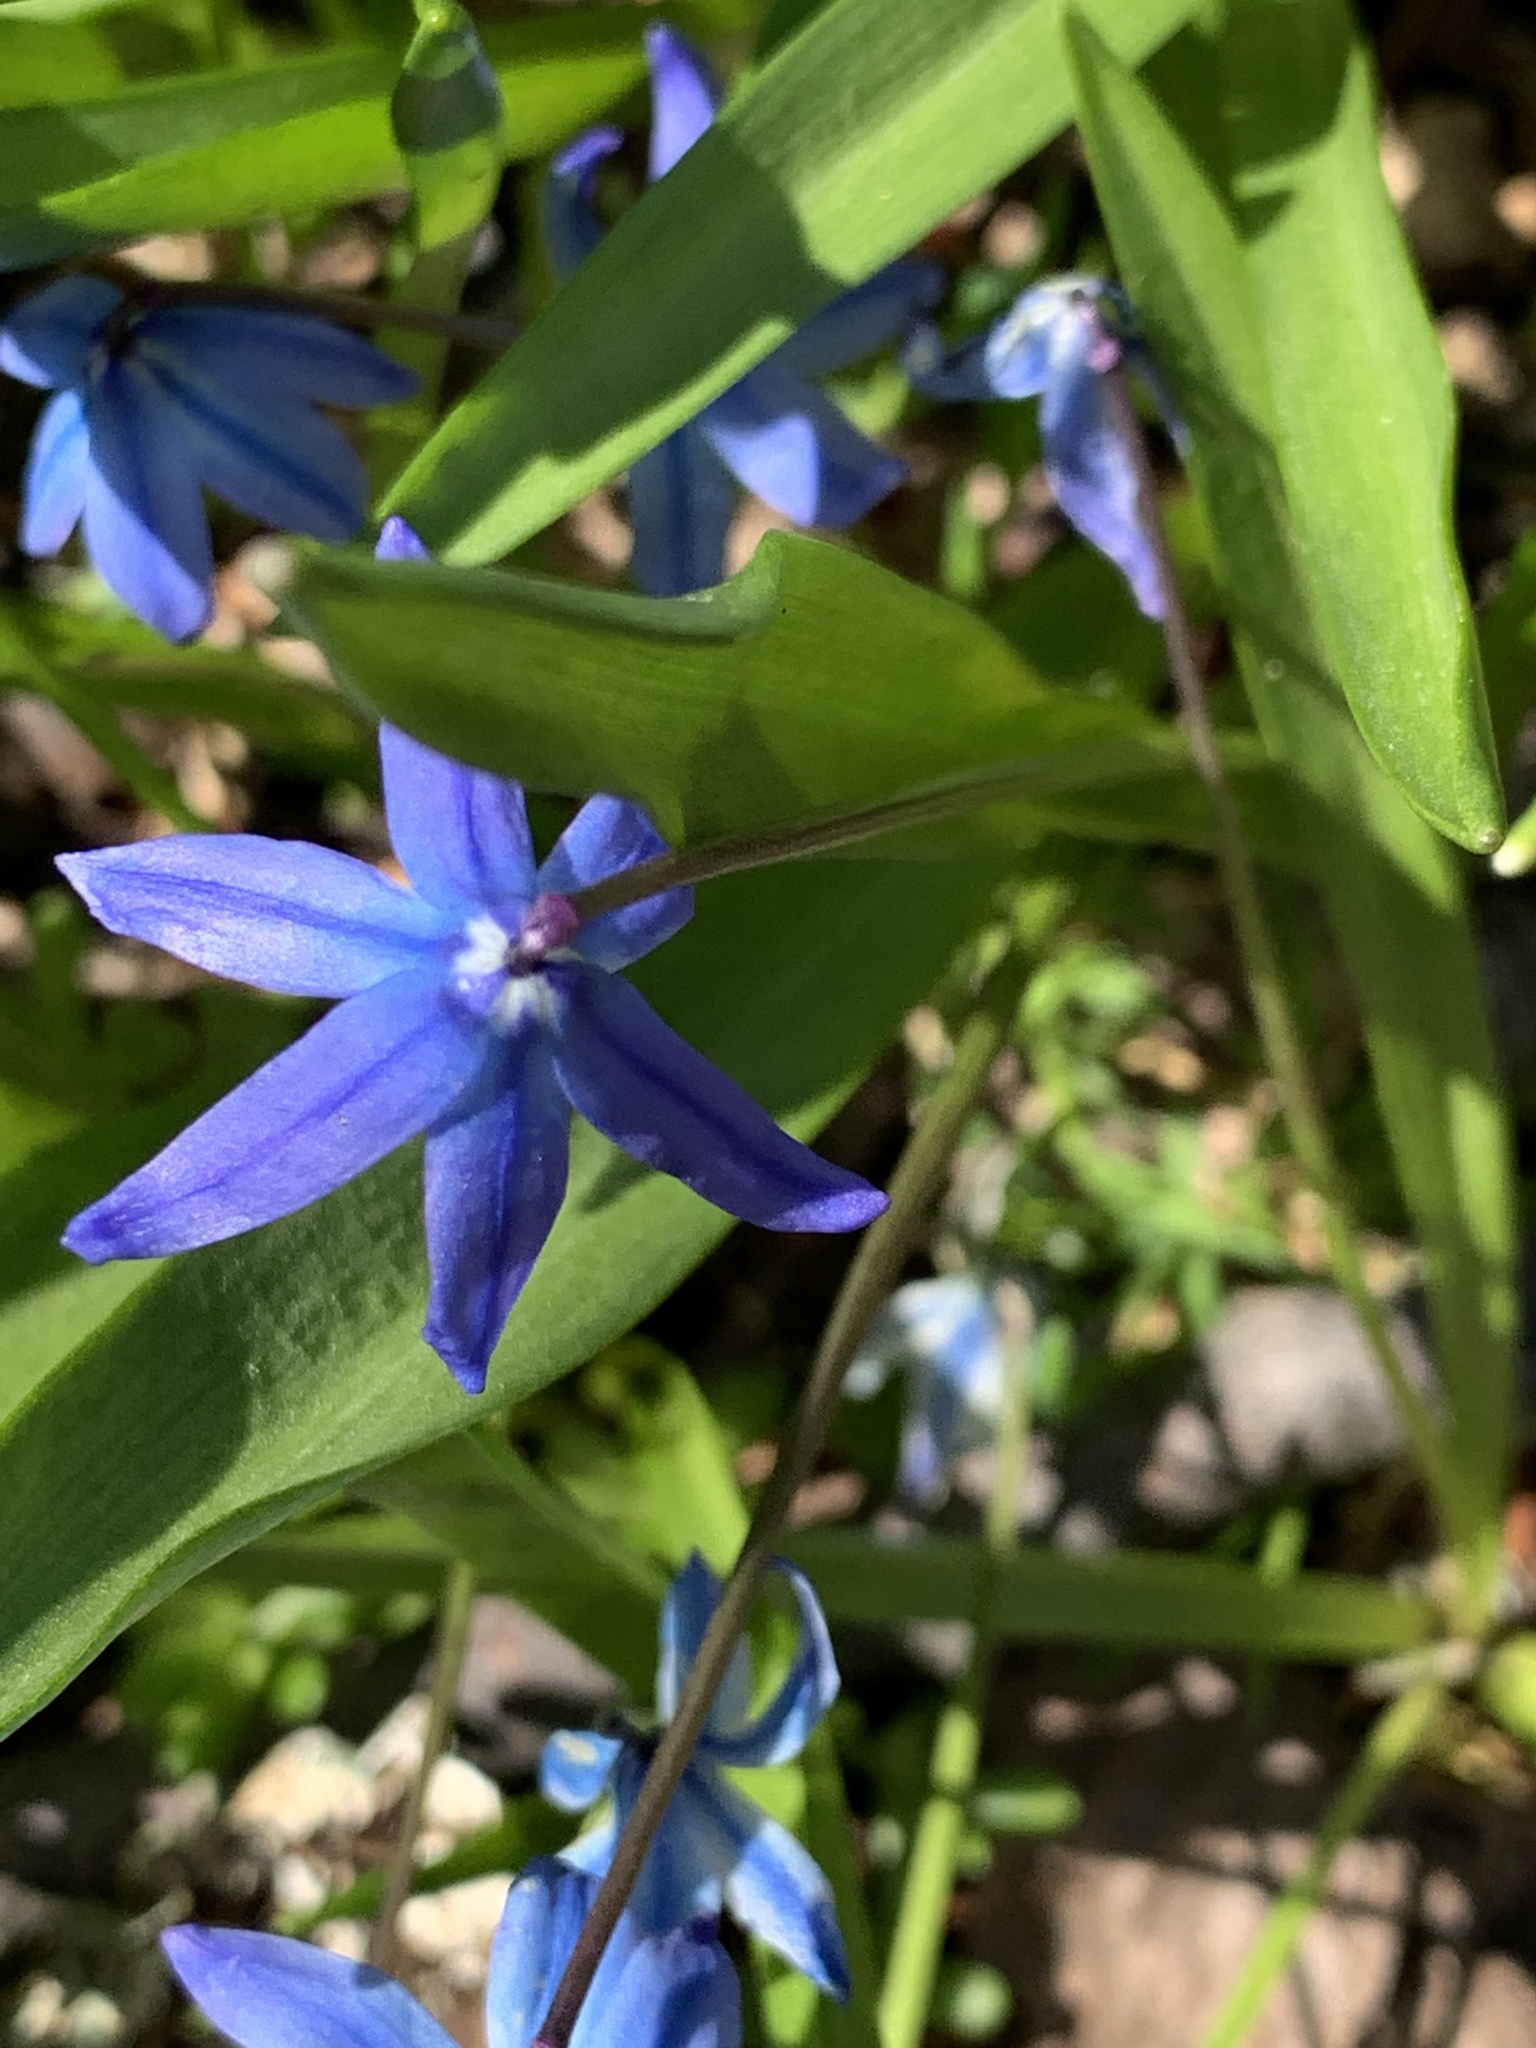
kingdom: Plantae
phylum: Tracheophyta
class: Liliopsida
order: Asparagales
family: Asparagaceae
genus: Scilla
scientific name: Scilla siberica
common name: Siberian squill
